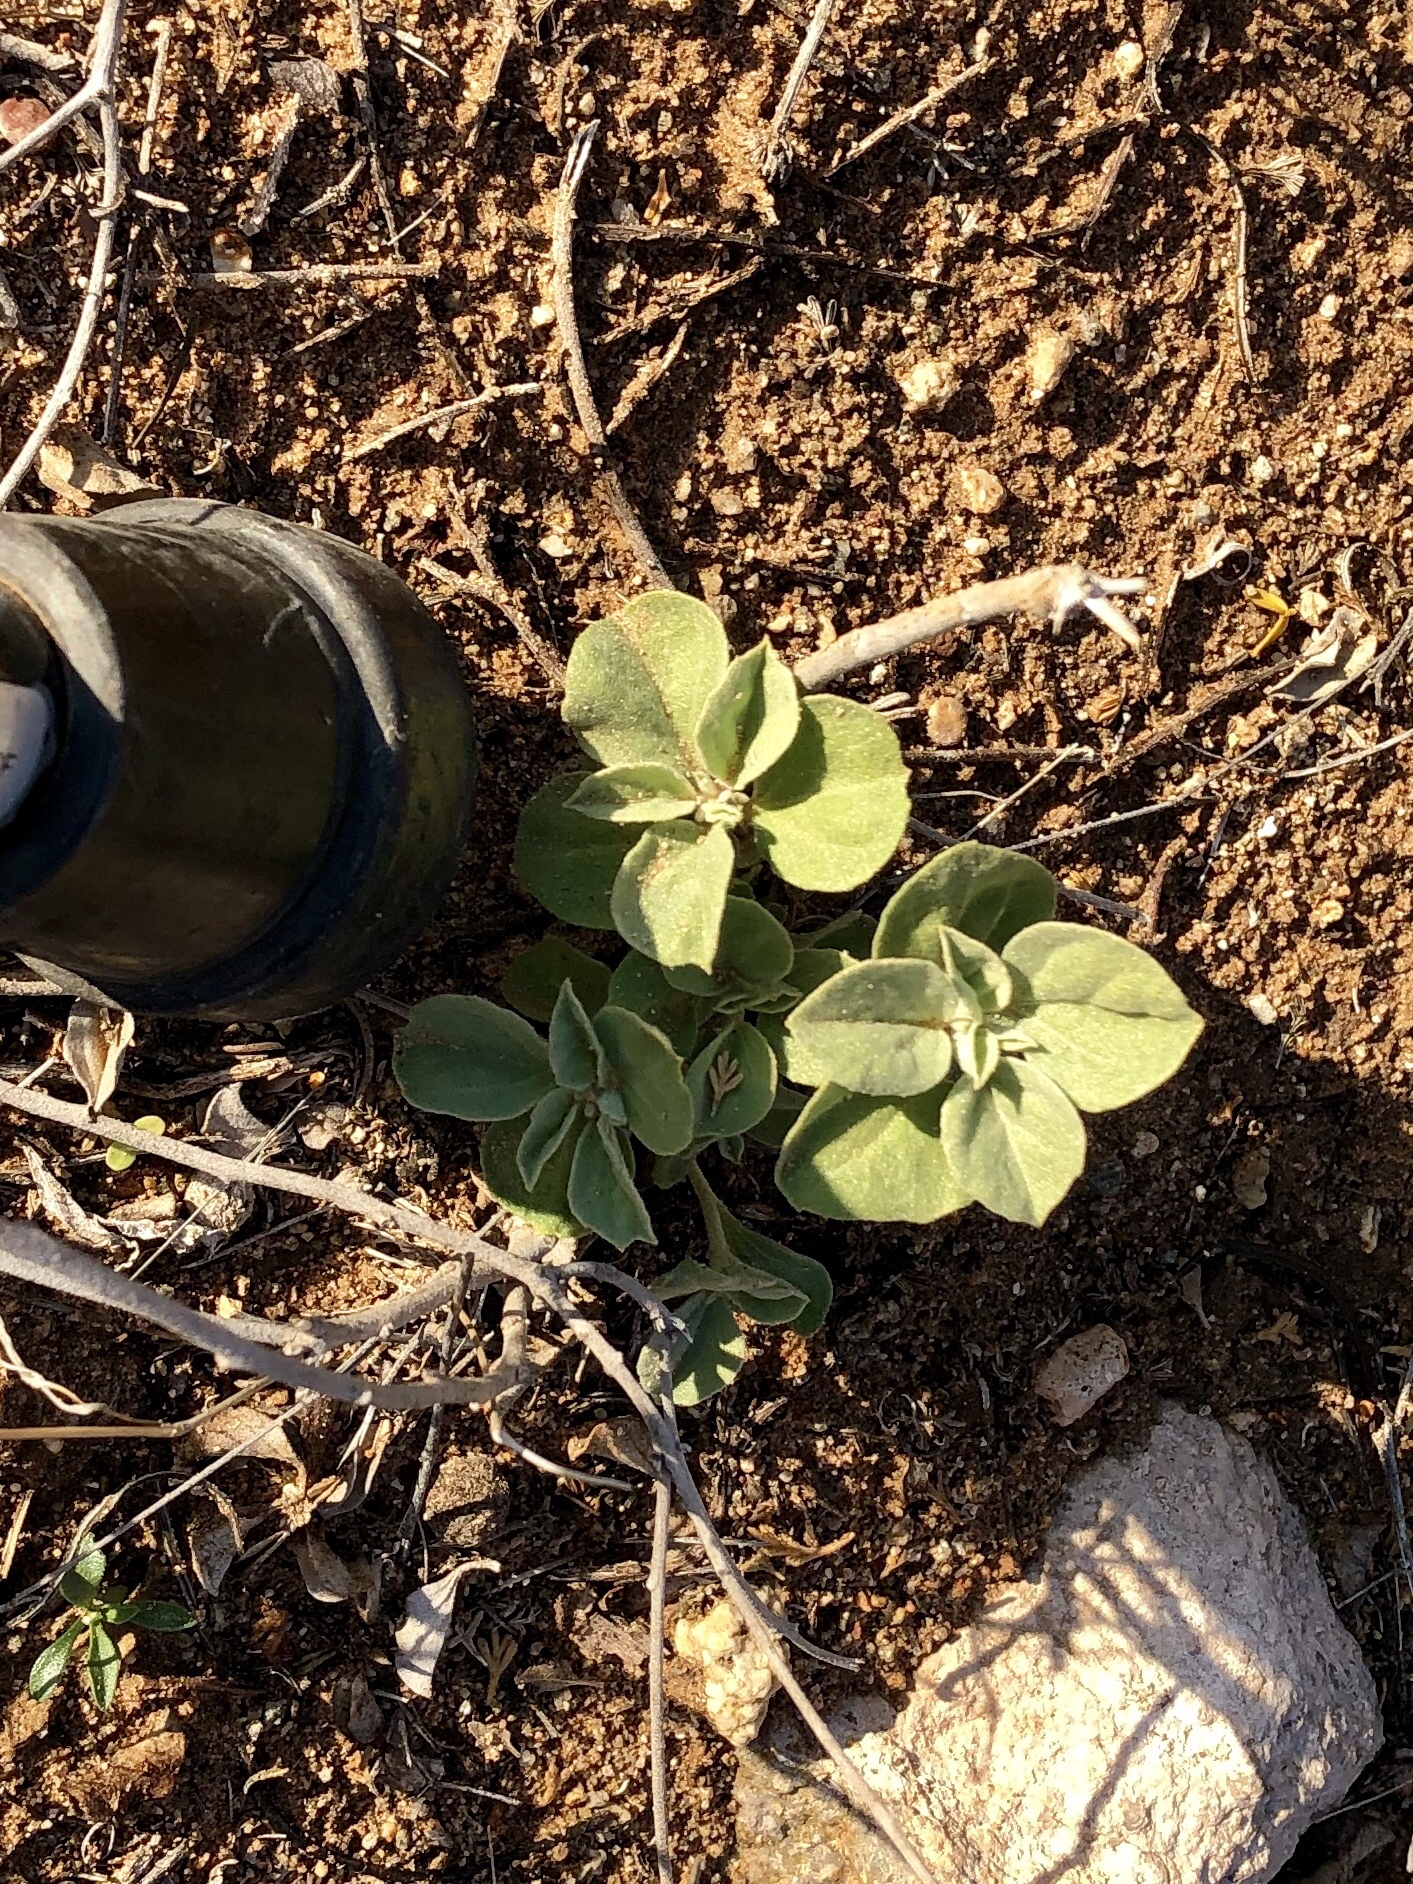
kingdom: Plantae
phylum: Tracheophyta
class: Magnoliopsida
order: Malpighiales
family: Euphorbiaceae
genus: Croton
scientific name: Croton pottsii
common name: Leatherweed
